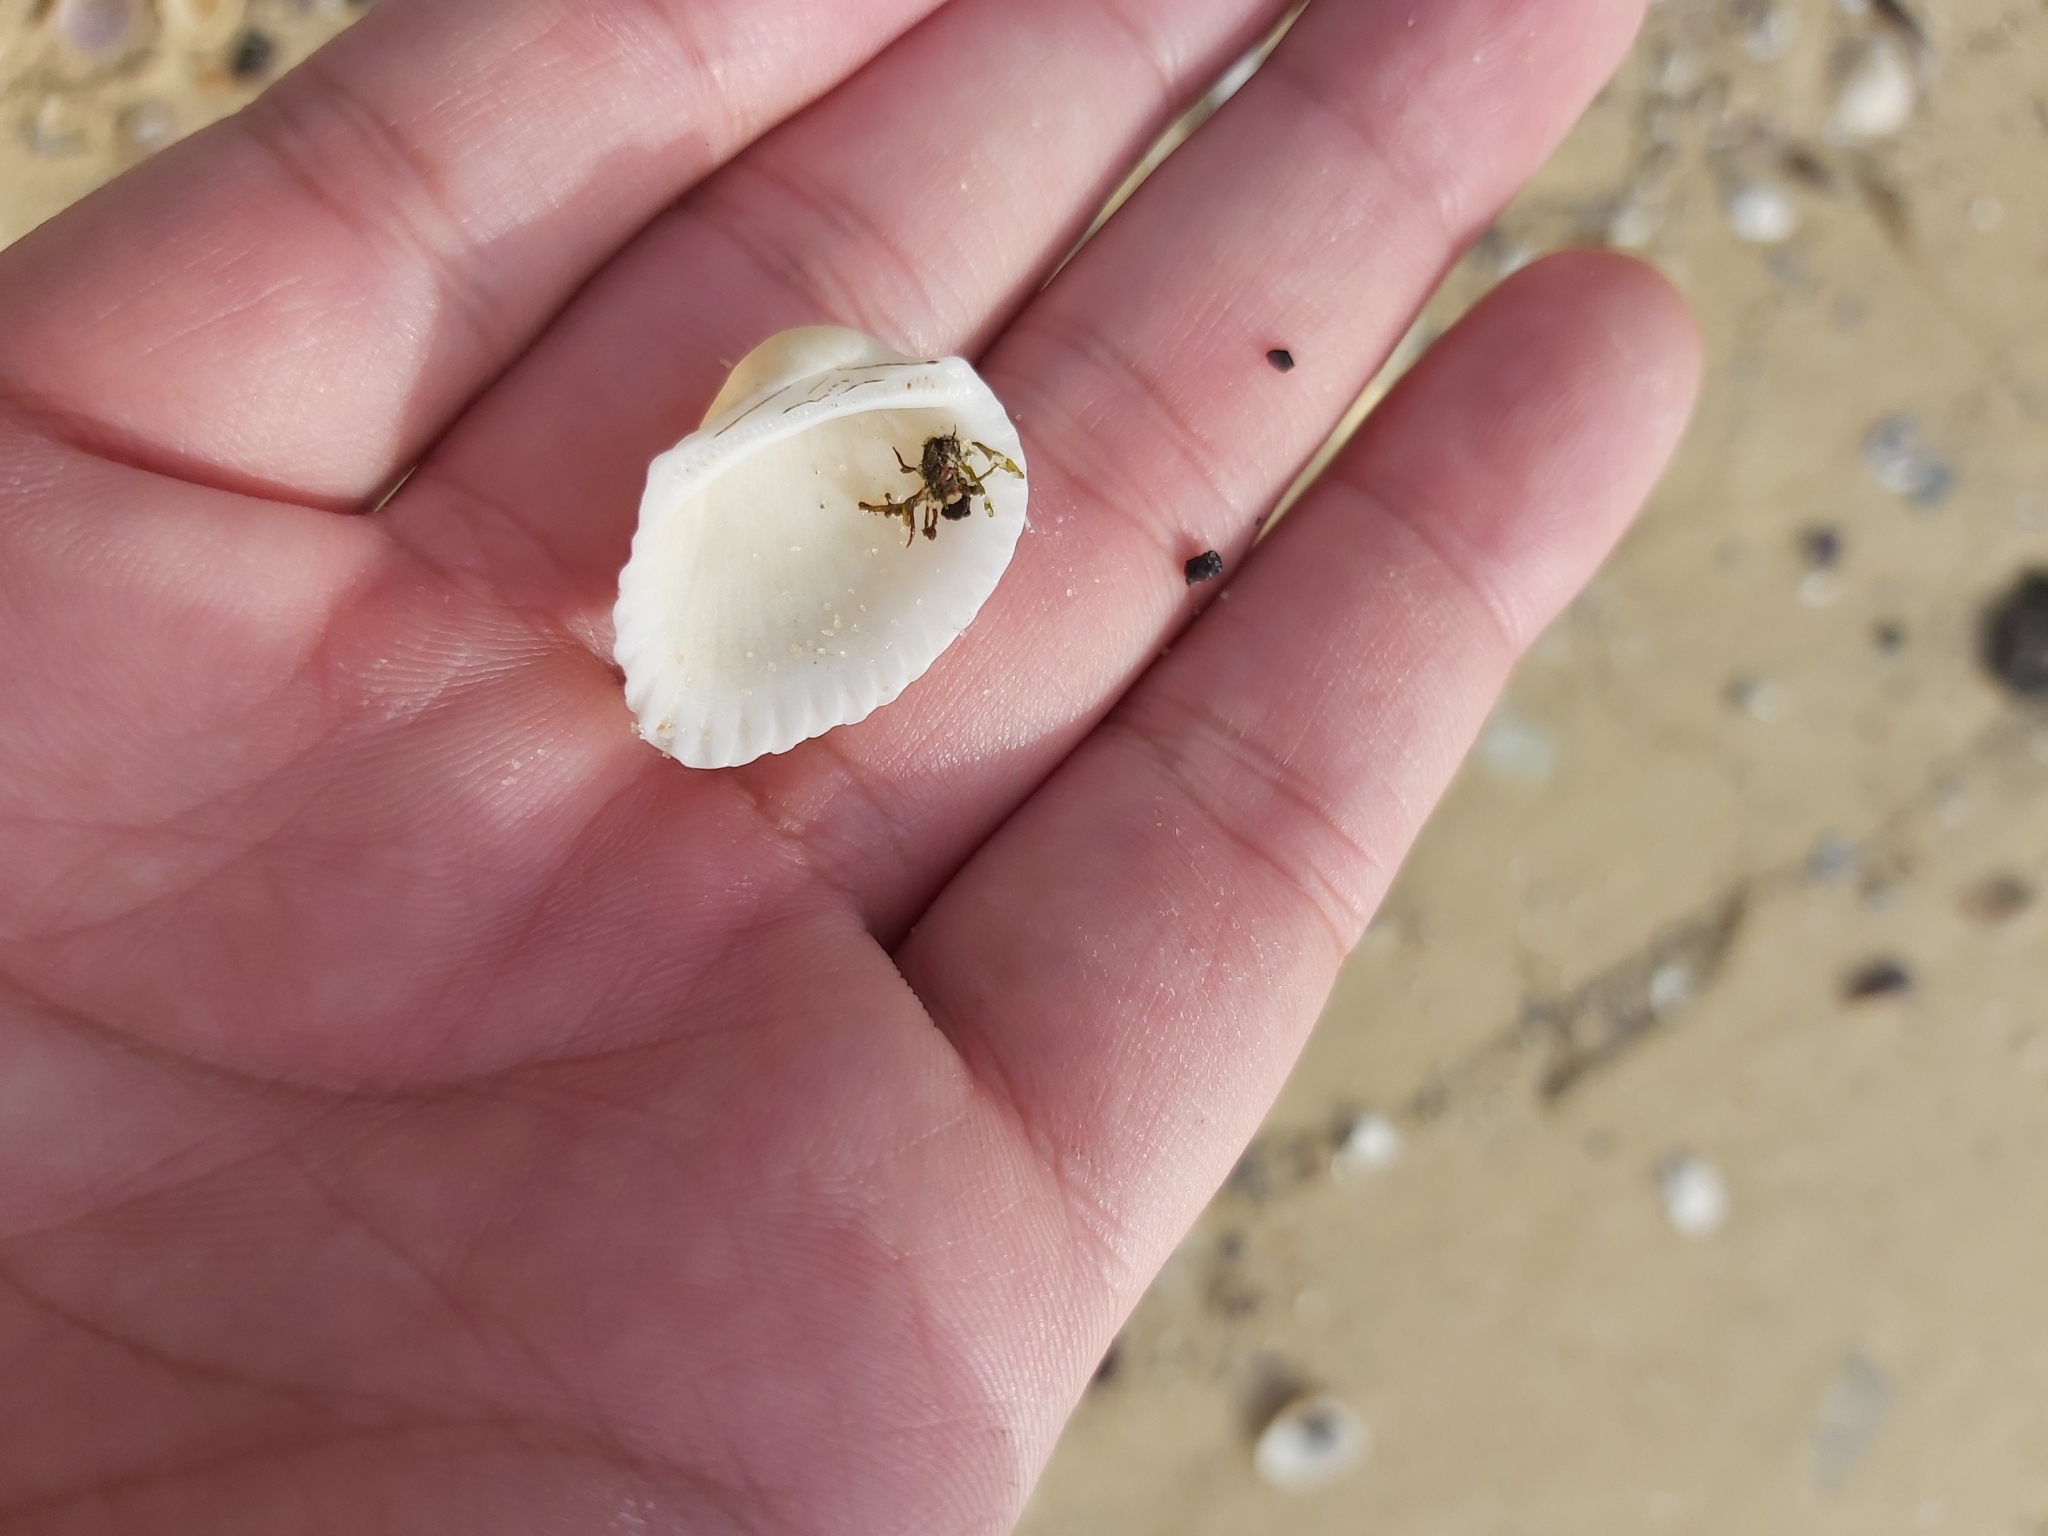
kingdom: Animalia
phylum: Mollusca
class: Bivalvia
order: Arcida
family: Arcidae
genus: Anadara
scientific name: Anadara trapezia
